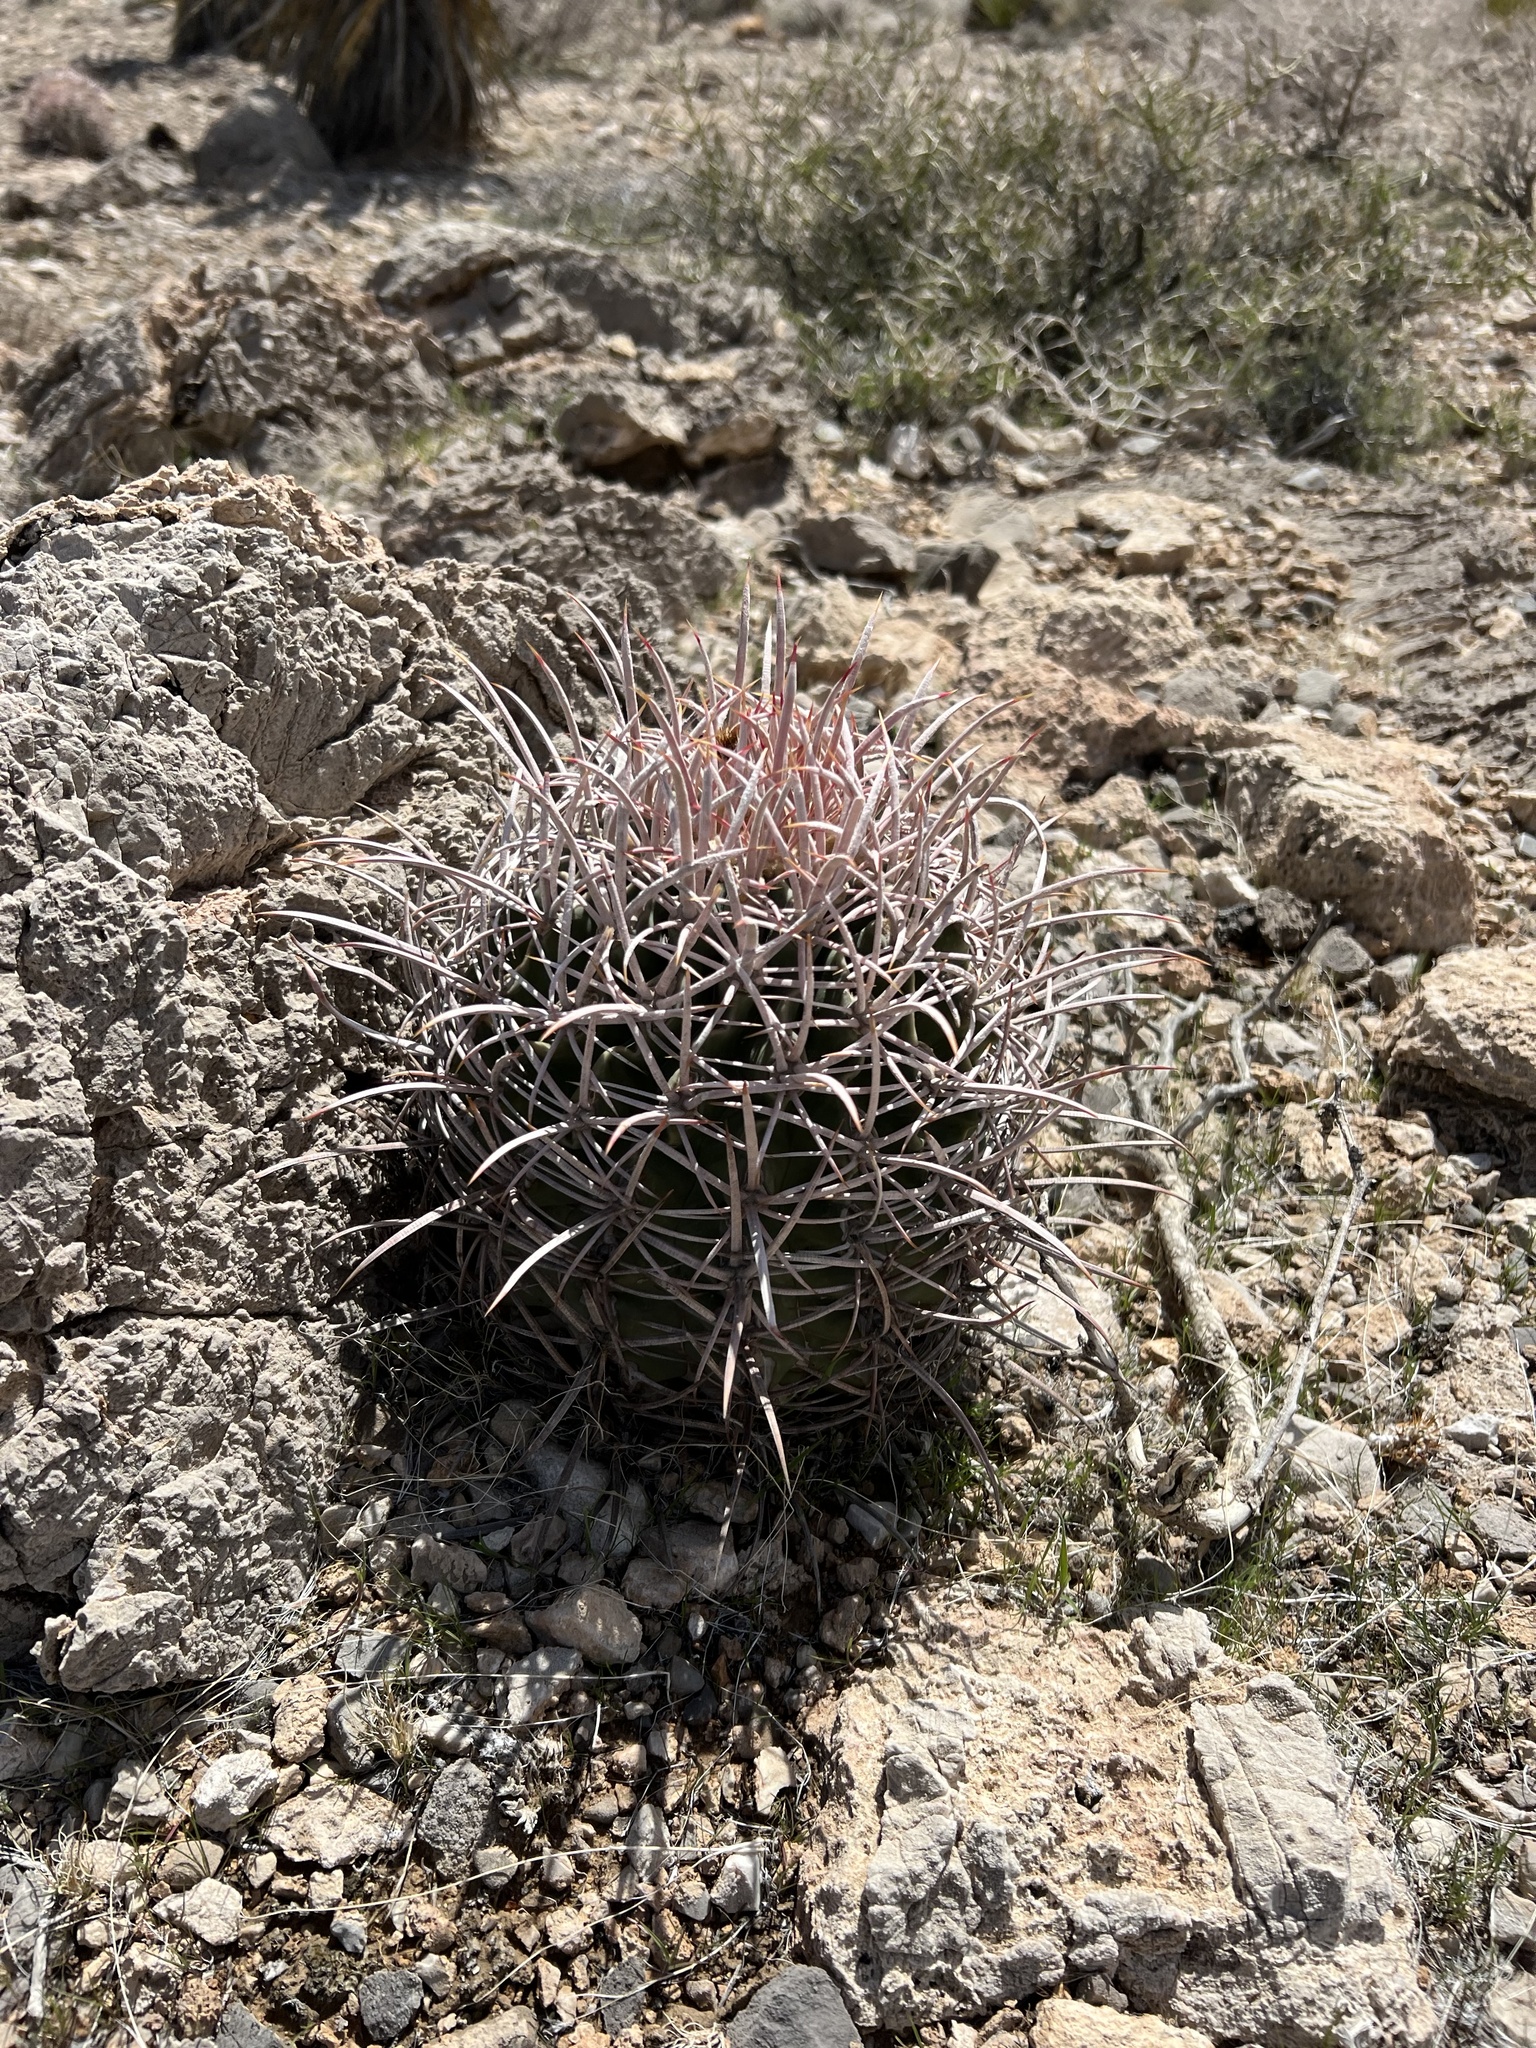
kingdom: Plantae
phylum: Tracheophyta
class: Magnoliopsida
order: Caryophyllales
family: Cactaceae
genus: Echinocactus
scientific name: Echinocactus polycephalus
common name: Cottontop cactus
